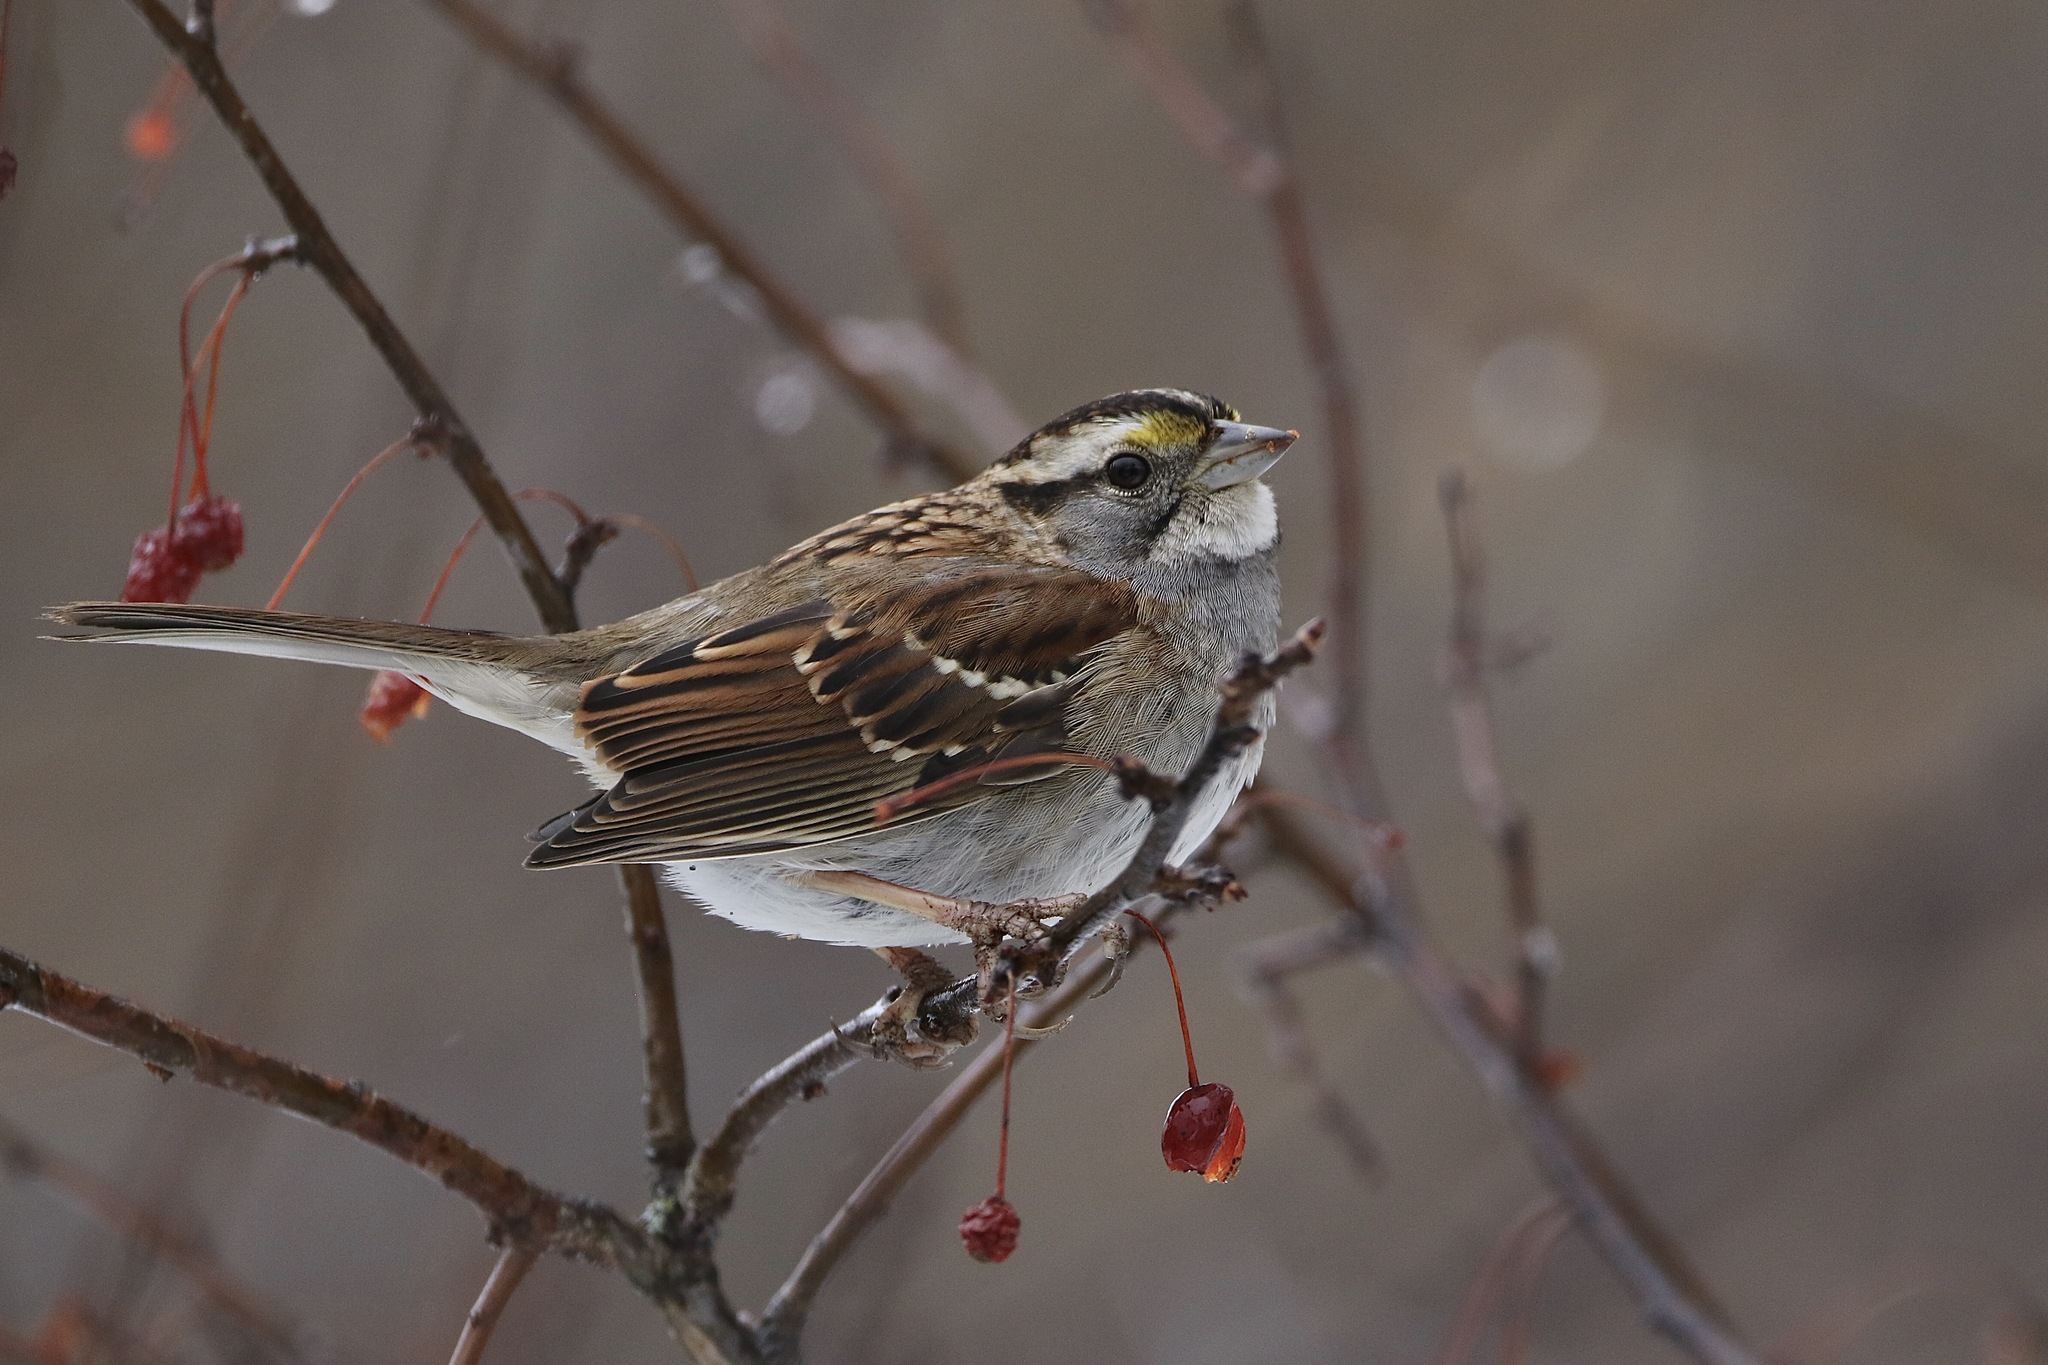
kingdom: Animalia
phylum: Chordata
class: Aves
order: Passeriformes
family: Passerellidae
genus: Zonotrichia
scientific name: Zonotrichia albicollis
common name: White-throated sparrow
